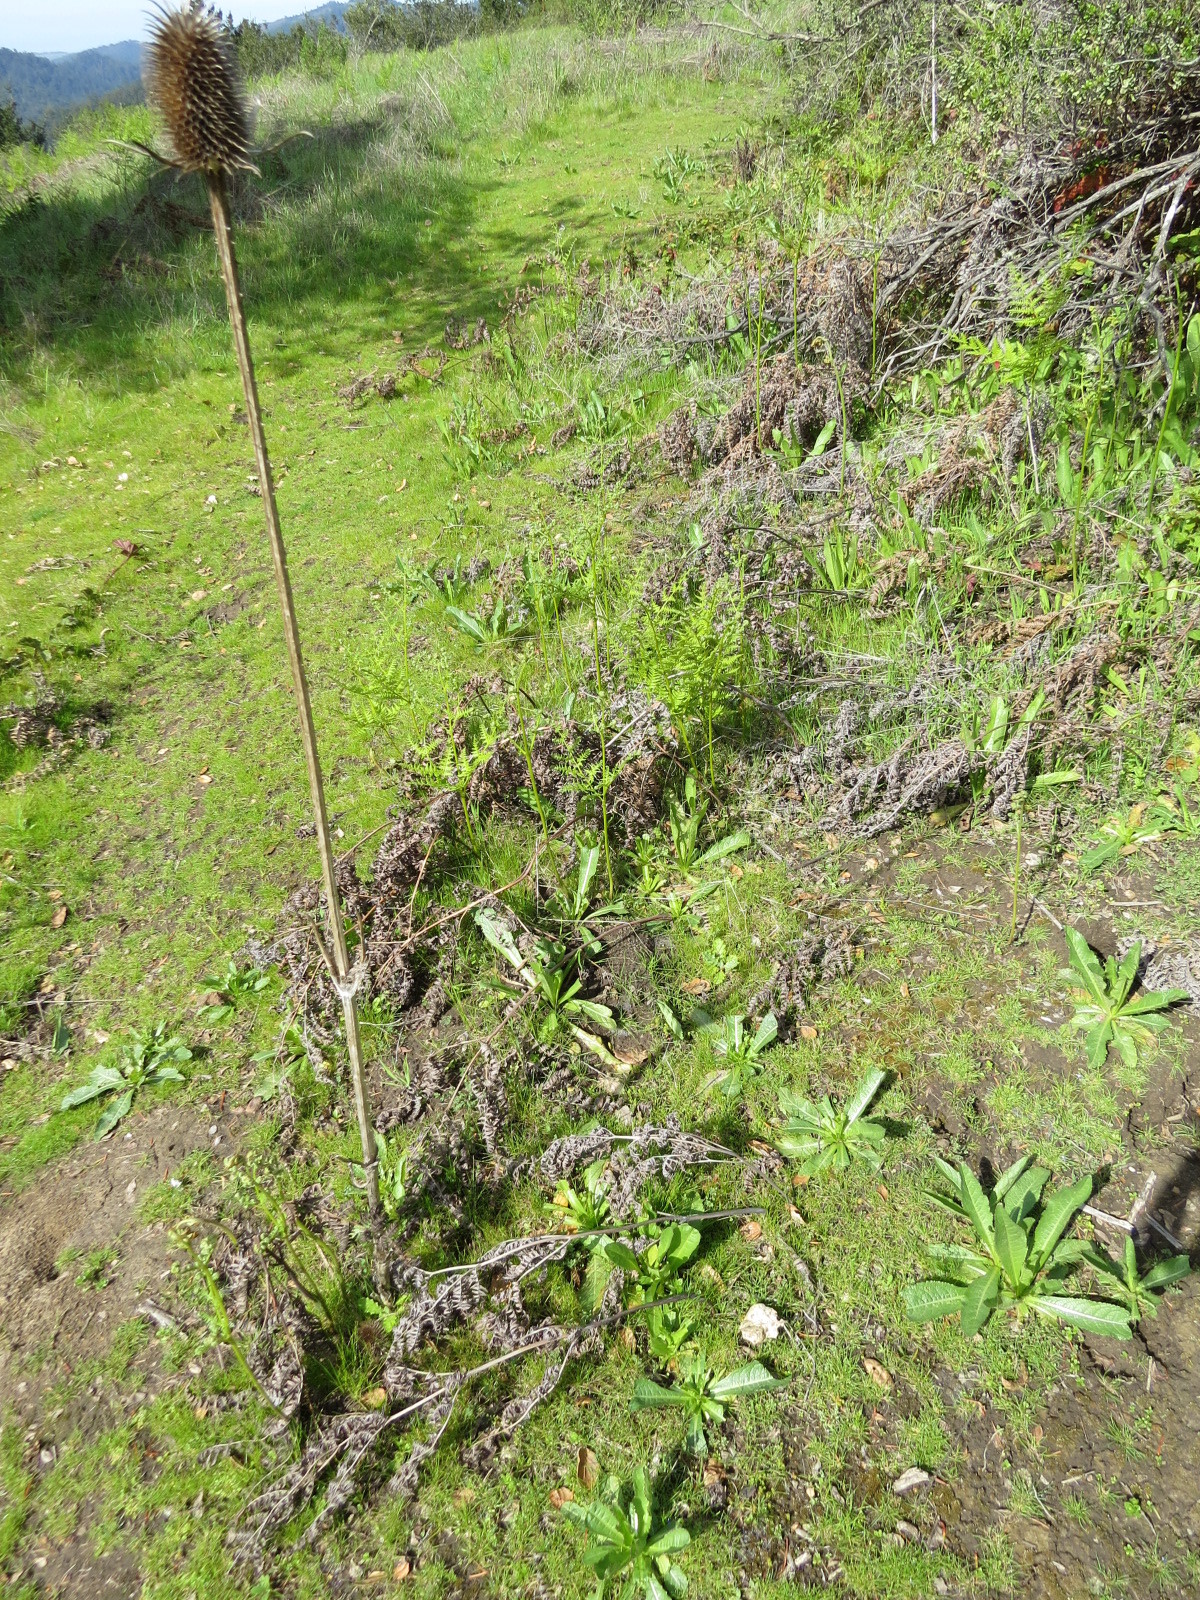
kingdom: Plantae
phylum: Tracheophyta
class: Magnoliopsida
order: Dipsacales
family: Caprifoliaceae
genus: Dipsacus
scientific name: Dipsacus sativus
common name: Fuller's teasel
